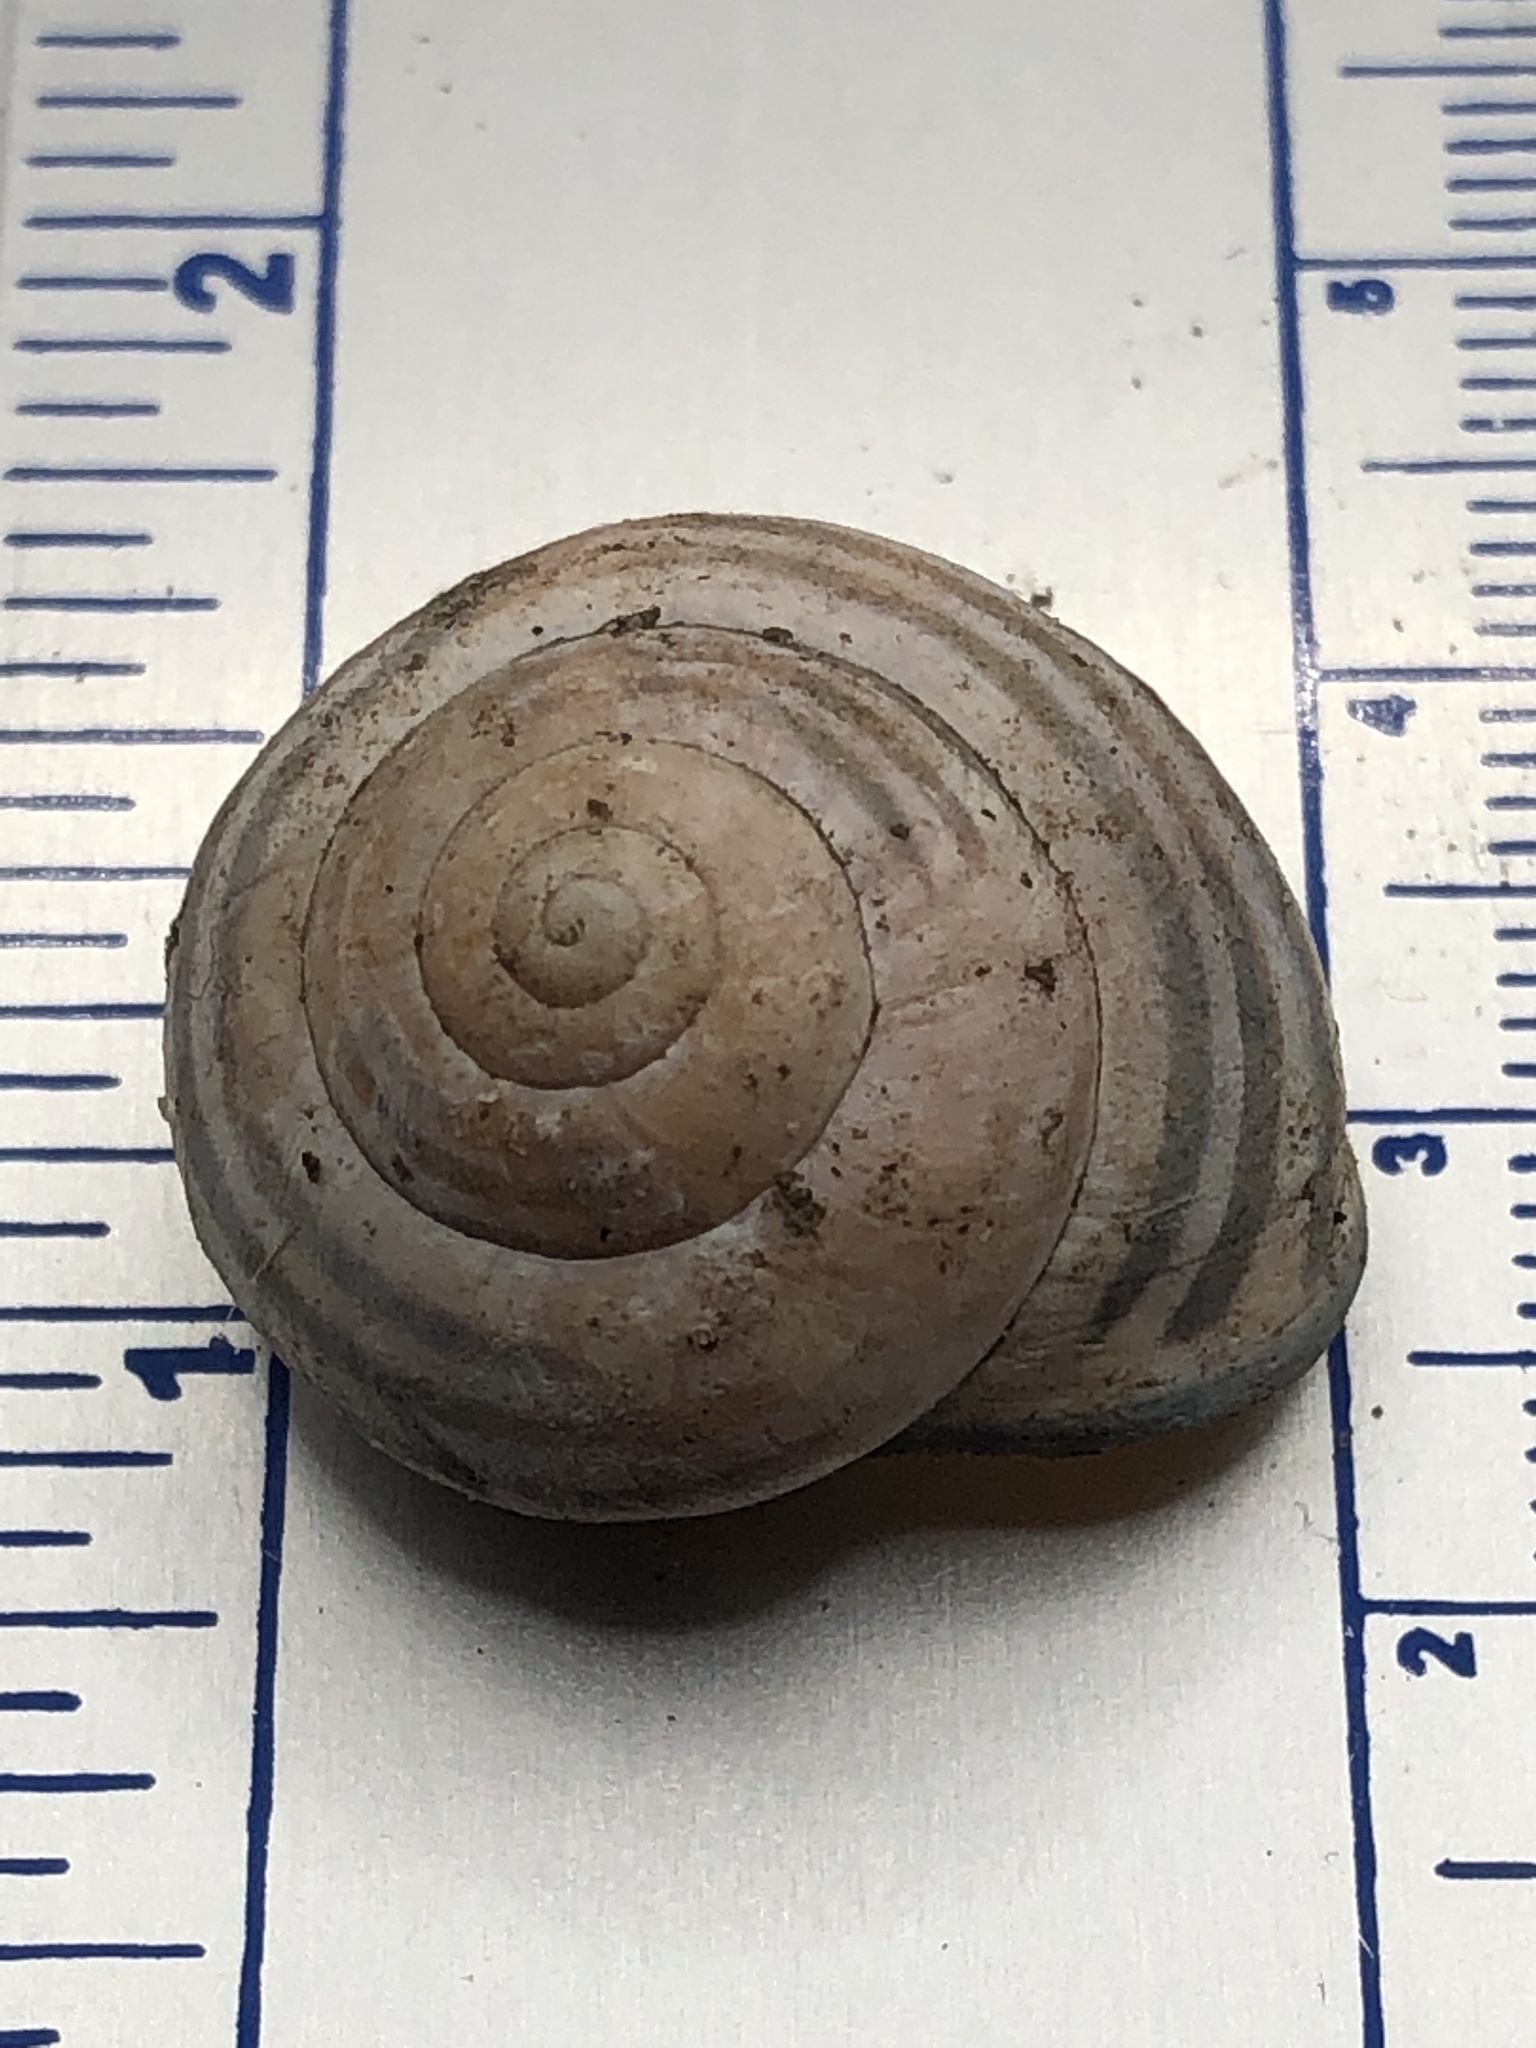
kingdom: Animalia
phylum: Mollusca
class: Gastropoda
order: Stylommatophora
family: Helicidae
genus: Cepaea
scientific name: Cepaea nemoralis
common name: Grovesnail
